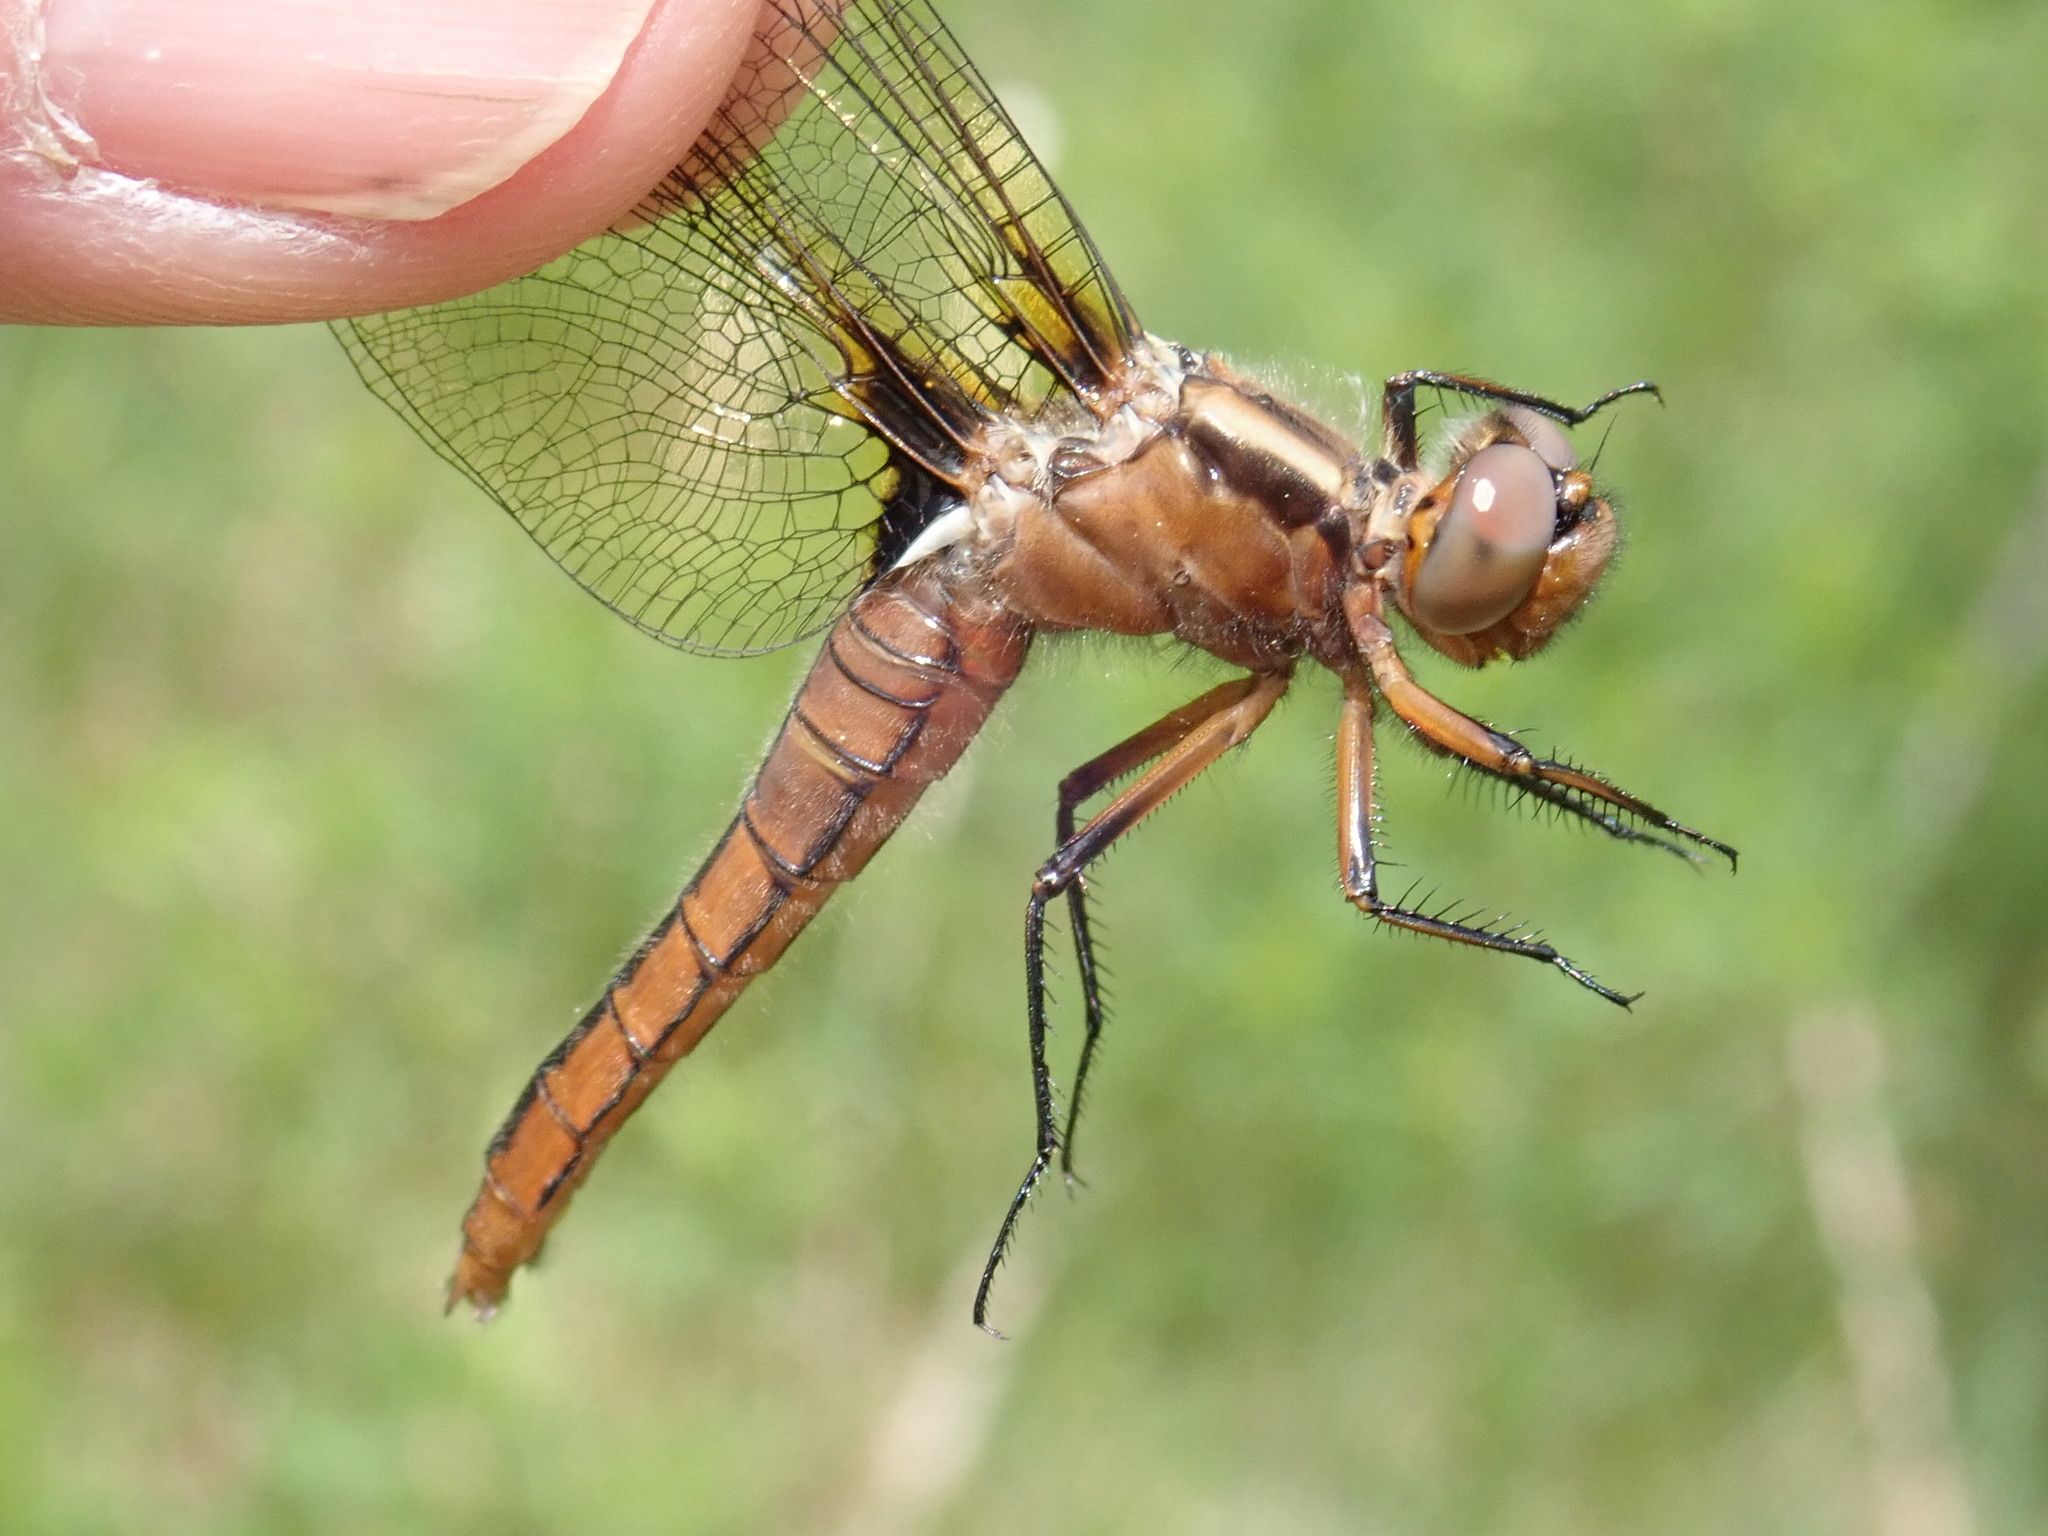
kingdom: Animalia
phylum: Arthropoda
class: Insecta
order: Odonata
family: Libellulidae
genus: Ladona
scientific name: Ladona julia
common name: Chalk-fronted corporal
